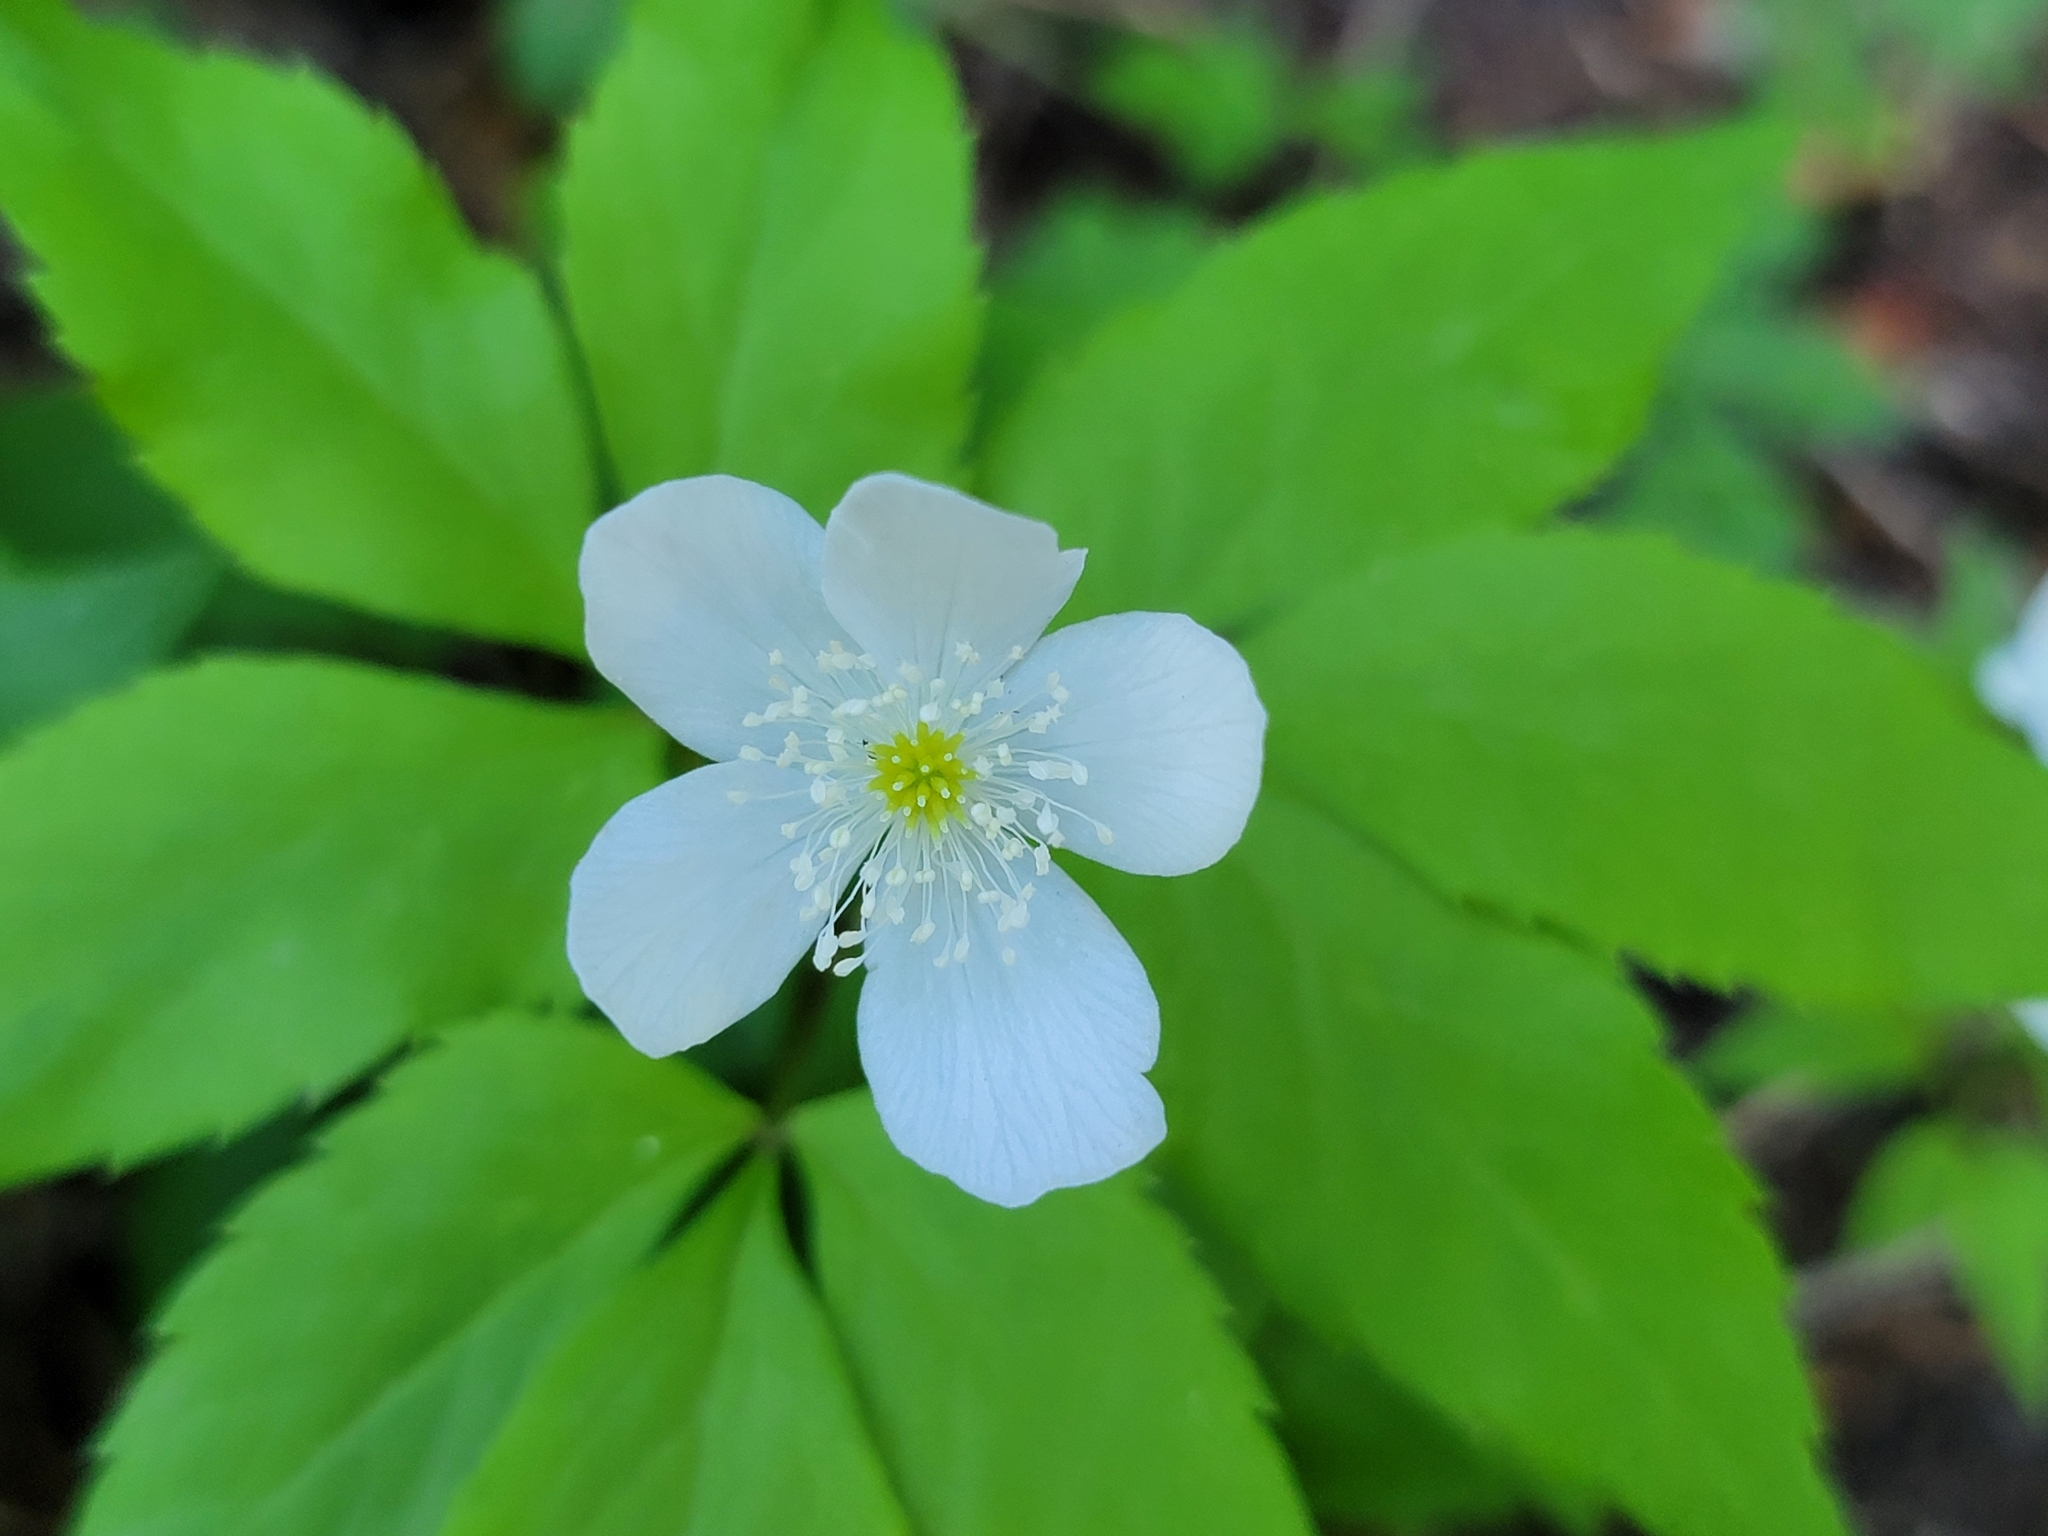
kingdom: Plantae
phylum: Tracheophyta
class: Magnoliopsida
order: Ranunculales
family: Ranunculaceae
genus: Anemone
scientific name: Anemone trifolia
